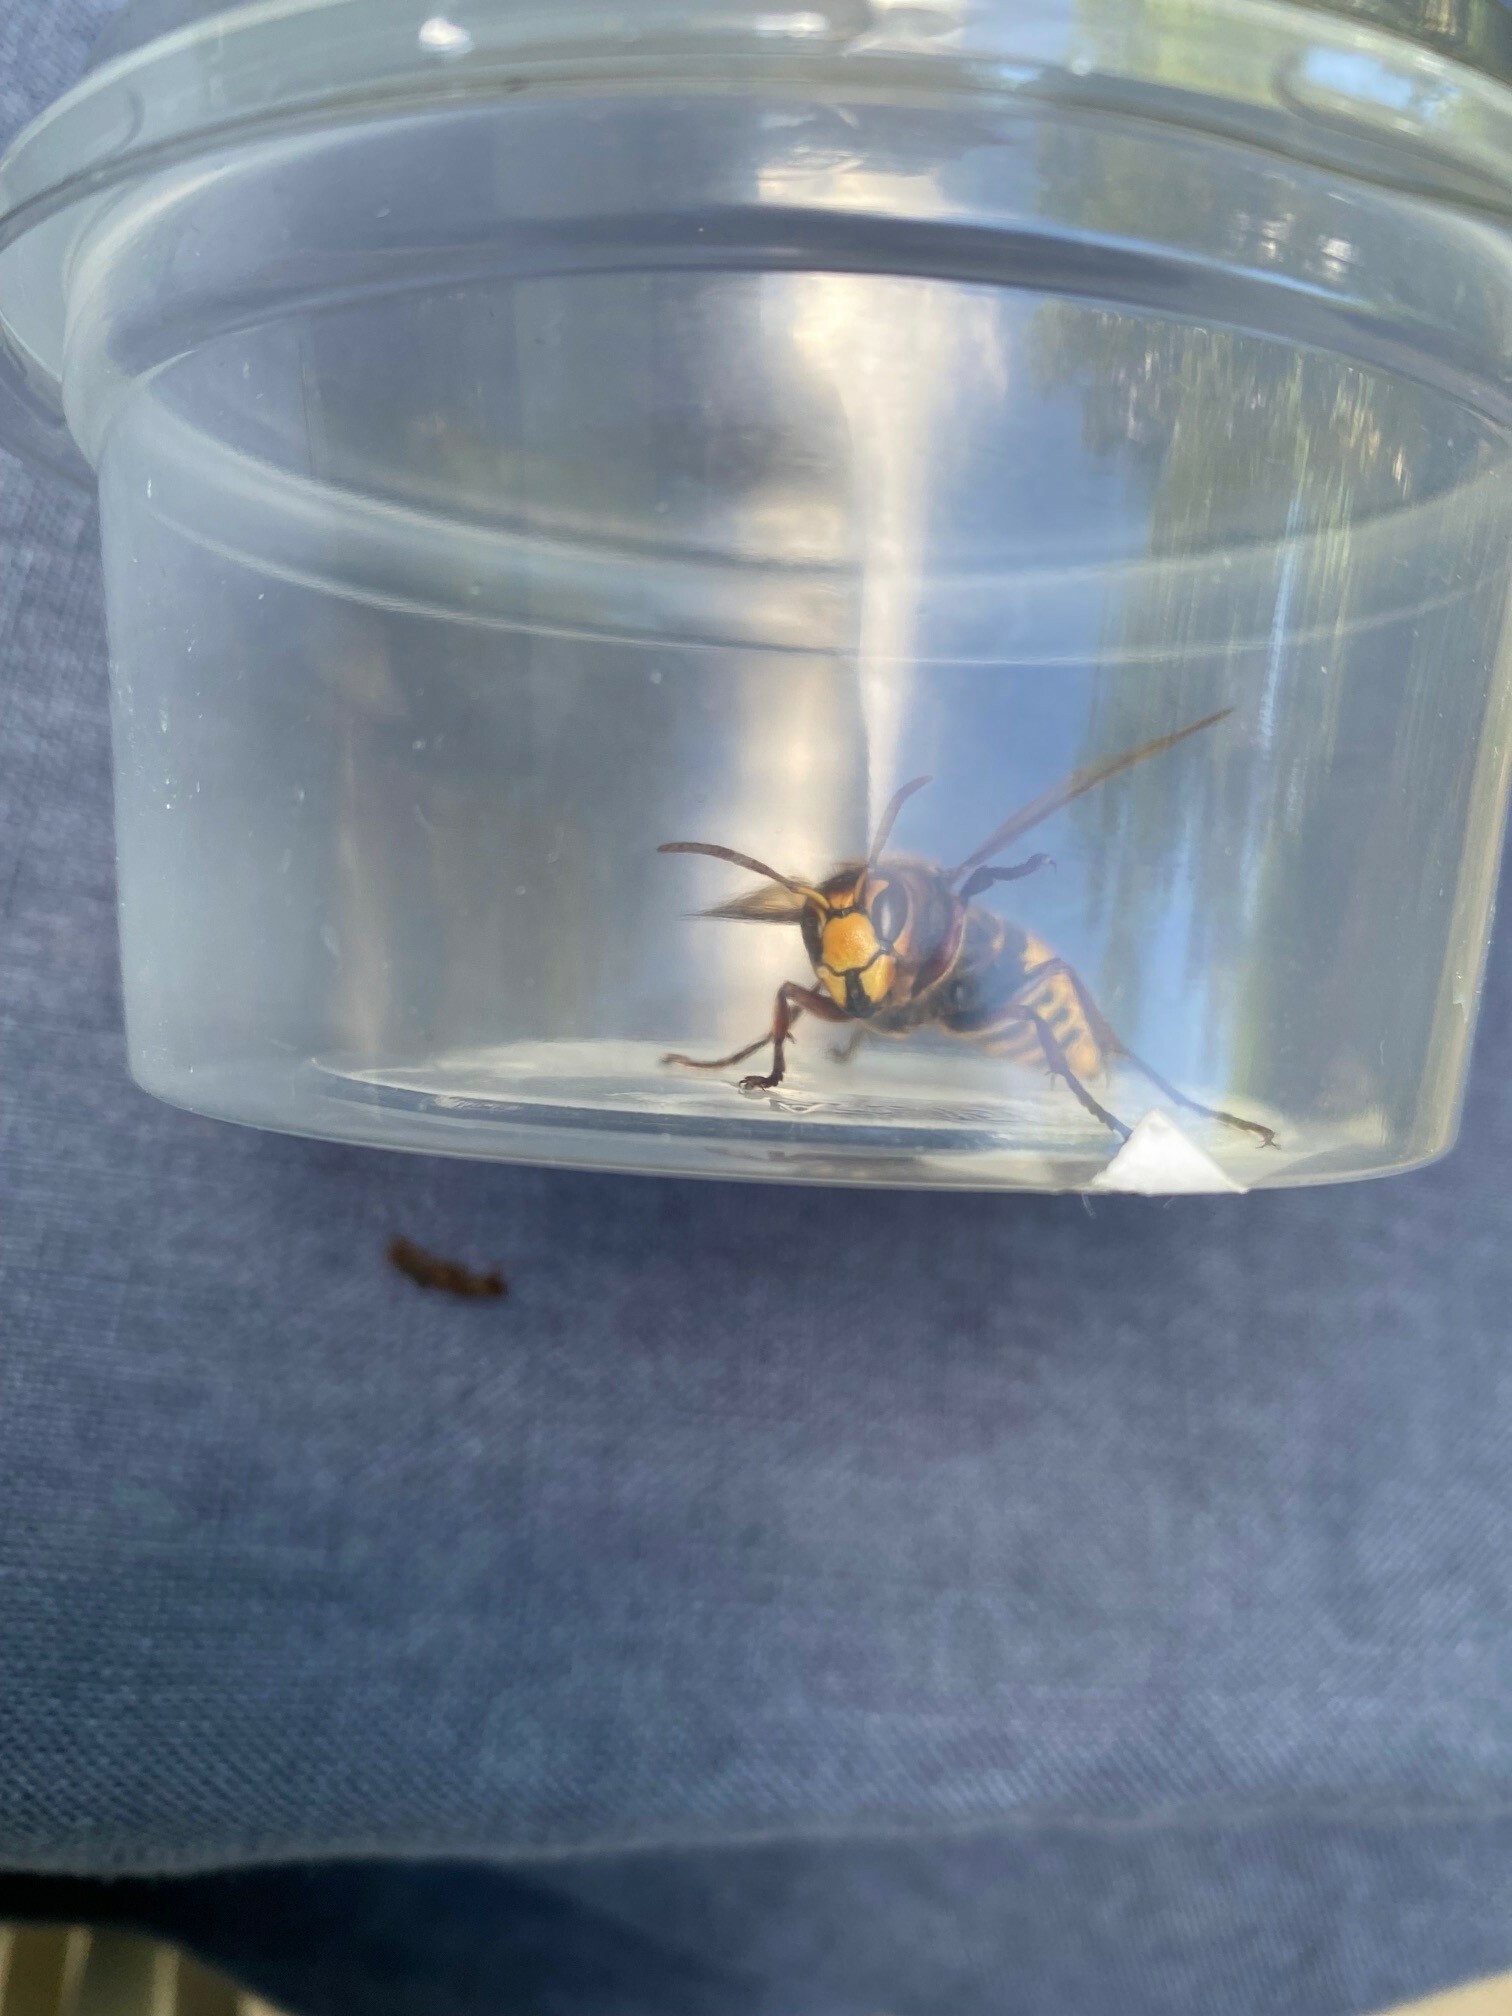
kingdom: Animalia
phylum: Arthropoda
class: Insecta
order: Hymenoptera
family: Vespidae
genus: Vespa
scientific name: Vespa crabro
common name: Hornet
